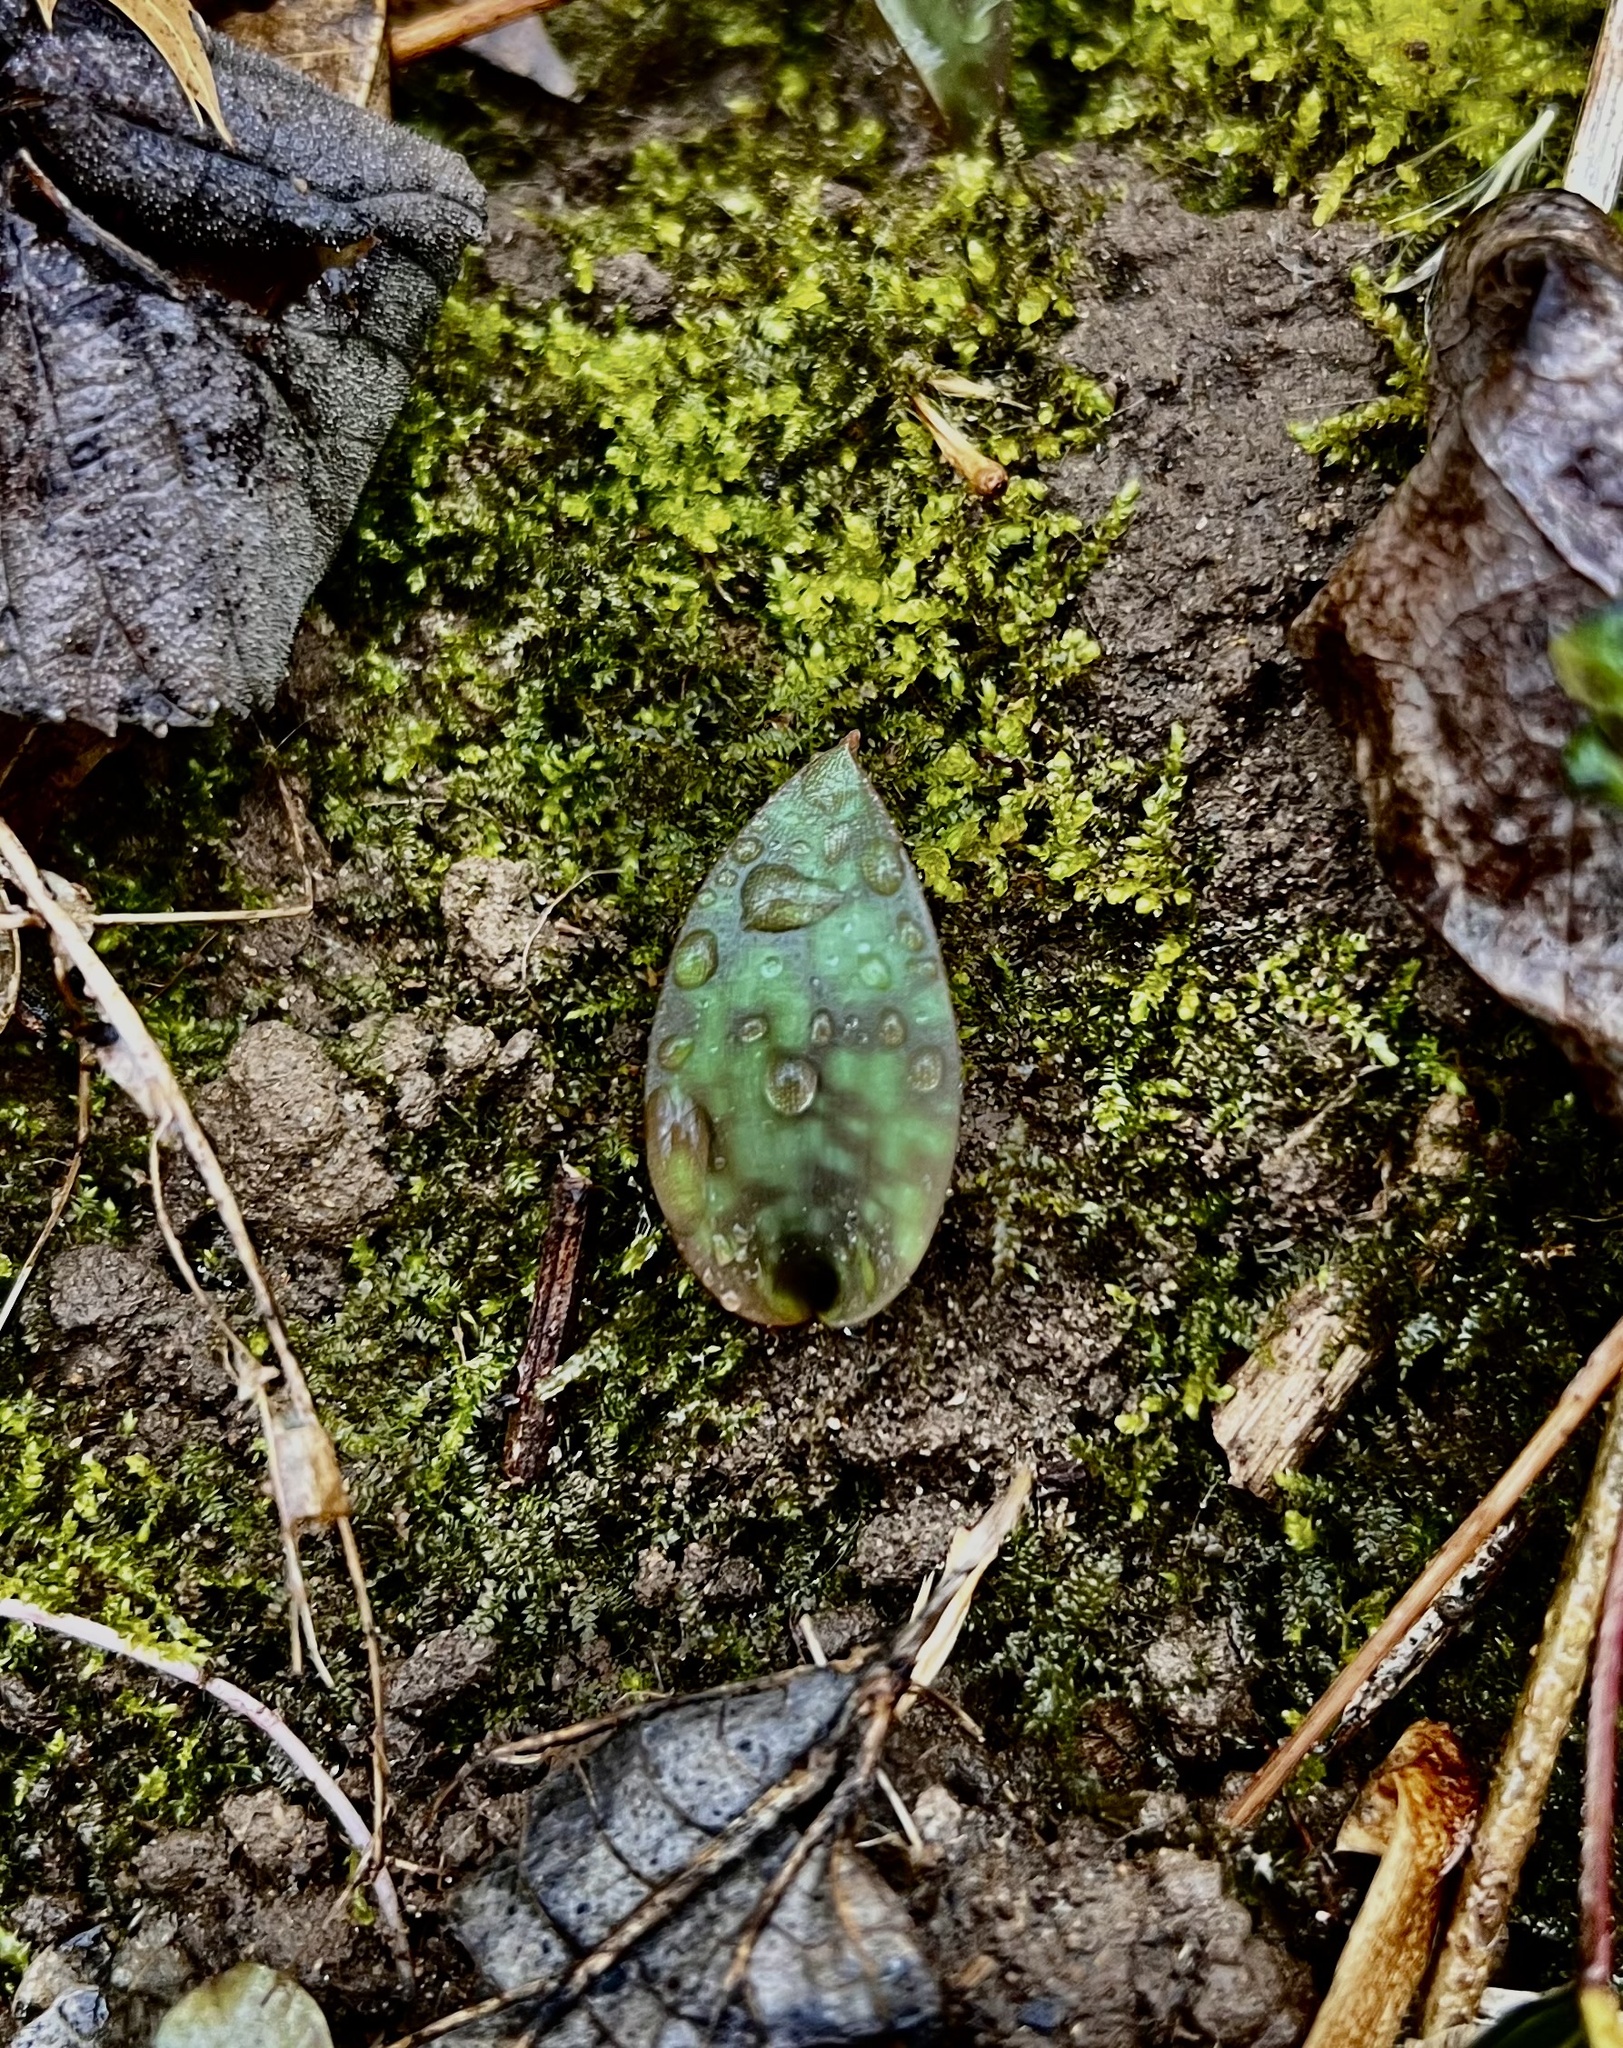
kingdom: Plantae
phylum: Tracheophyta
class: Liliopsida
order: Liliales
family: Liliaceae
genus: Erythronium
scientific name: Erythronium americanum
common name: Yellow adder's-tongue
